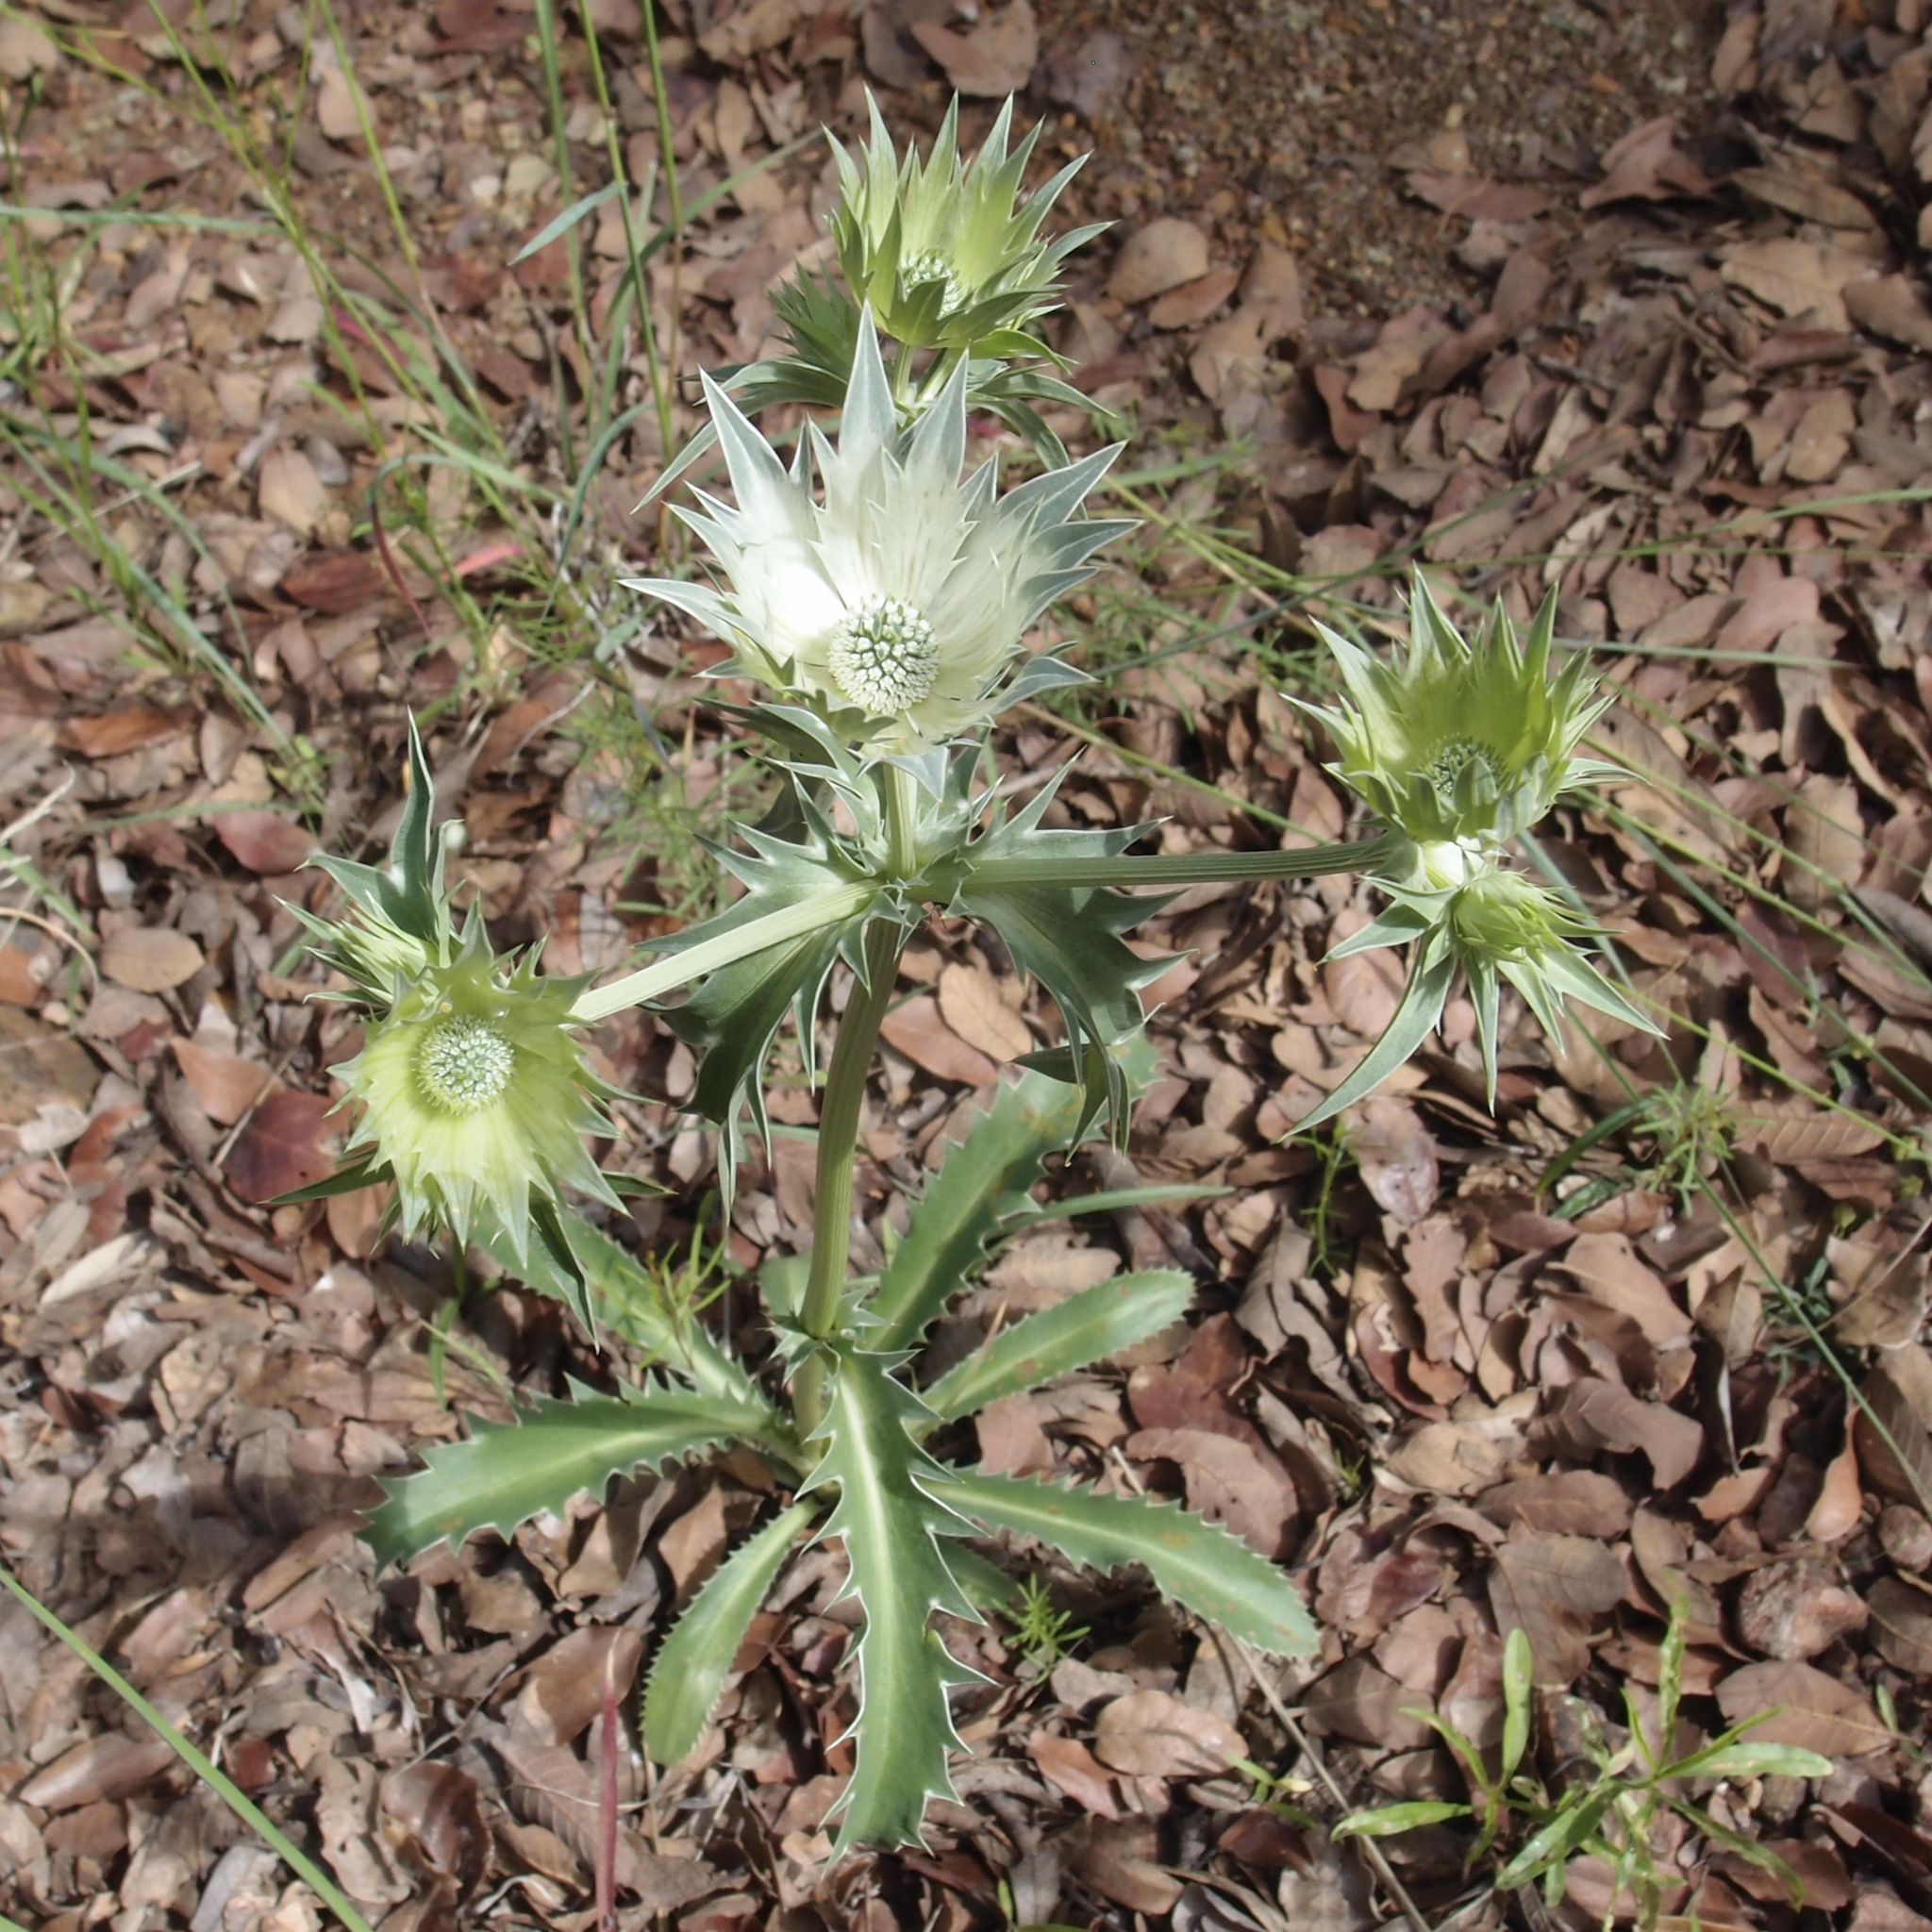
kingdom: Plantae
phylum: Tracheophyta
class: Magnoliopsida
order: Apiales
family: Apiaceae
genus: Eryngium
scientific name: Eryngium lemmonii
